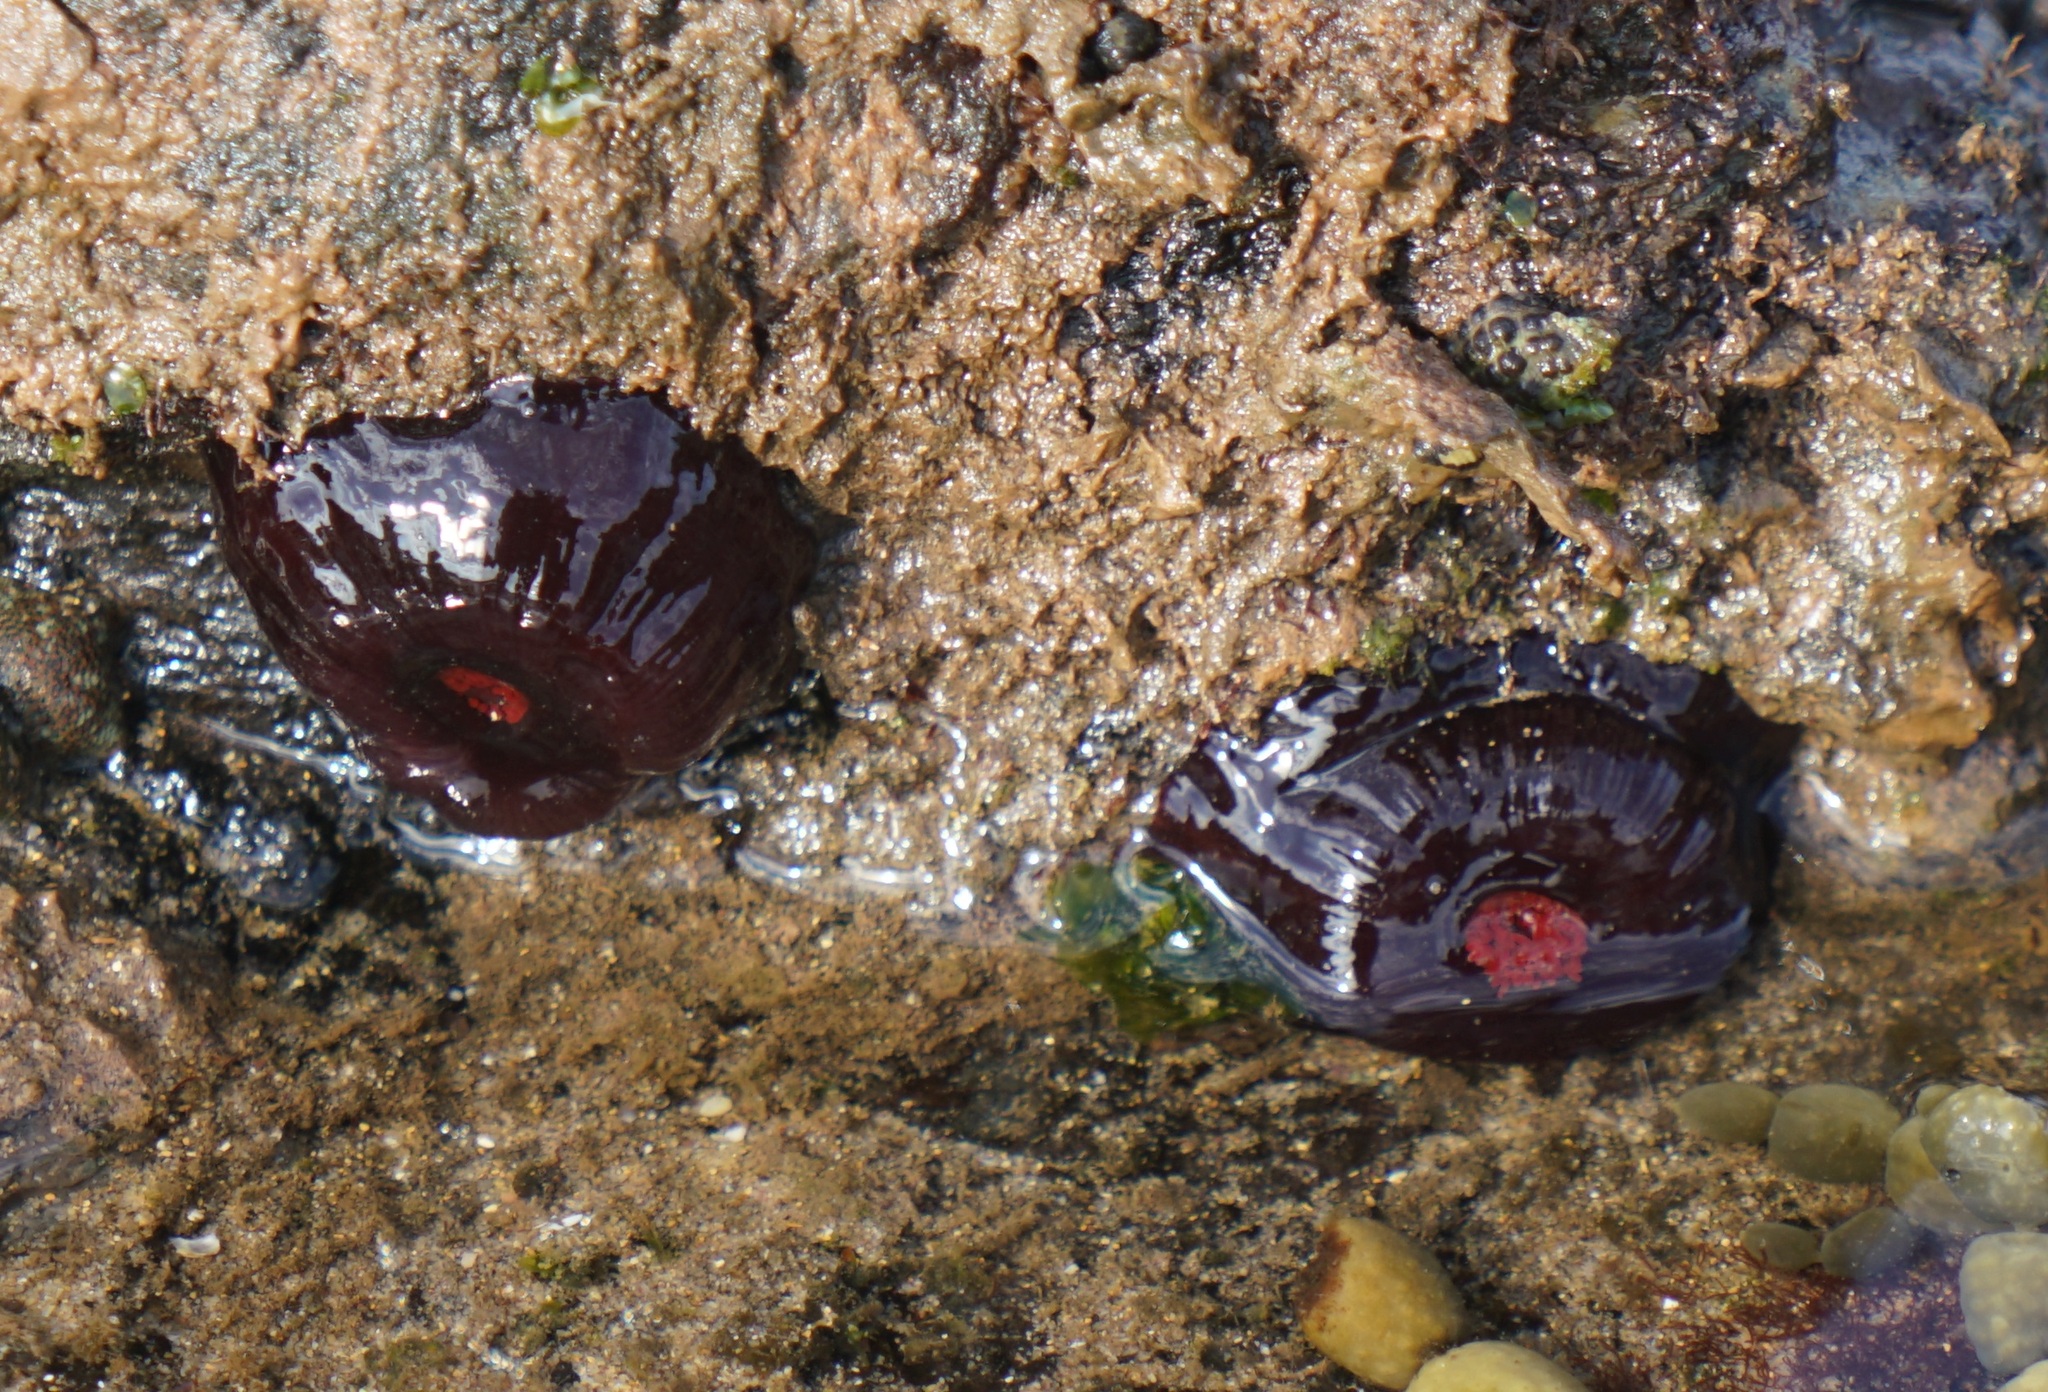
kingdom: Animalia
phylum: Cnidaria
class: Anthozoa
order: Actiniaria
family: Actiniidae
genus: Actinia
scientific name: Actinia tenebrosa
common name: Waratah anemone
